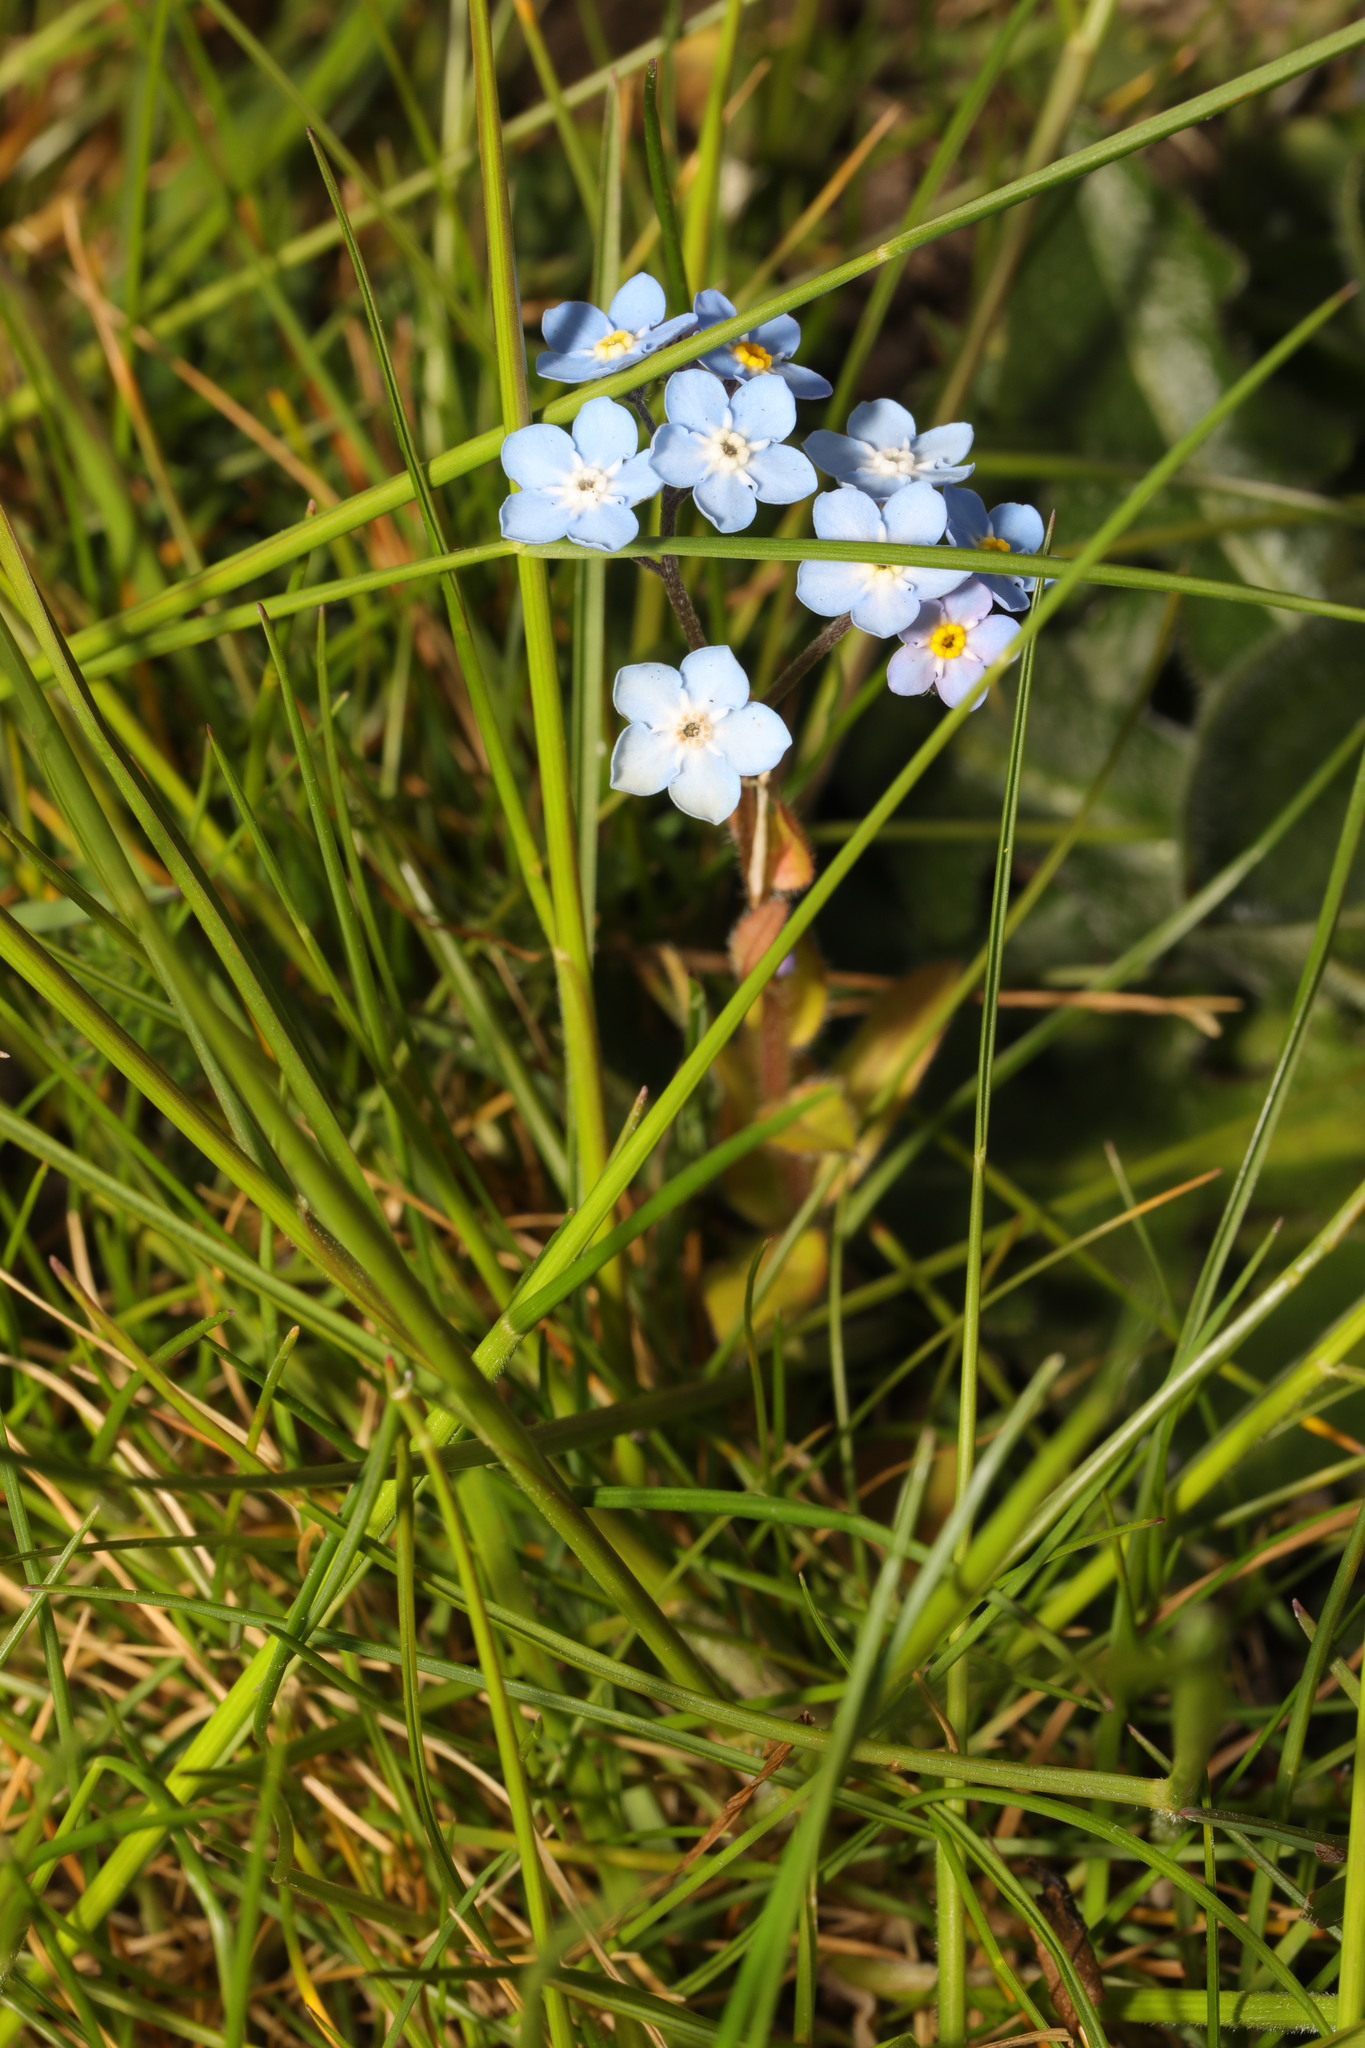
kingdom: Plantae
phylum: Tracheophyta
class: Magnoliopsida
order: Boraginales
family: Boraginaceae
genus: Myosotis
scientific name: Myosotis sylvatica
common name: Wood forget-me-not
